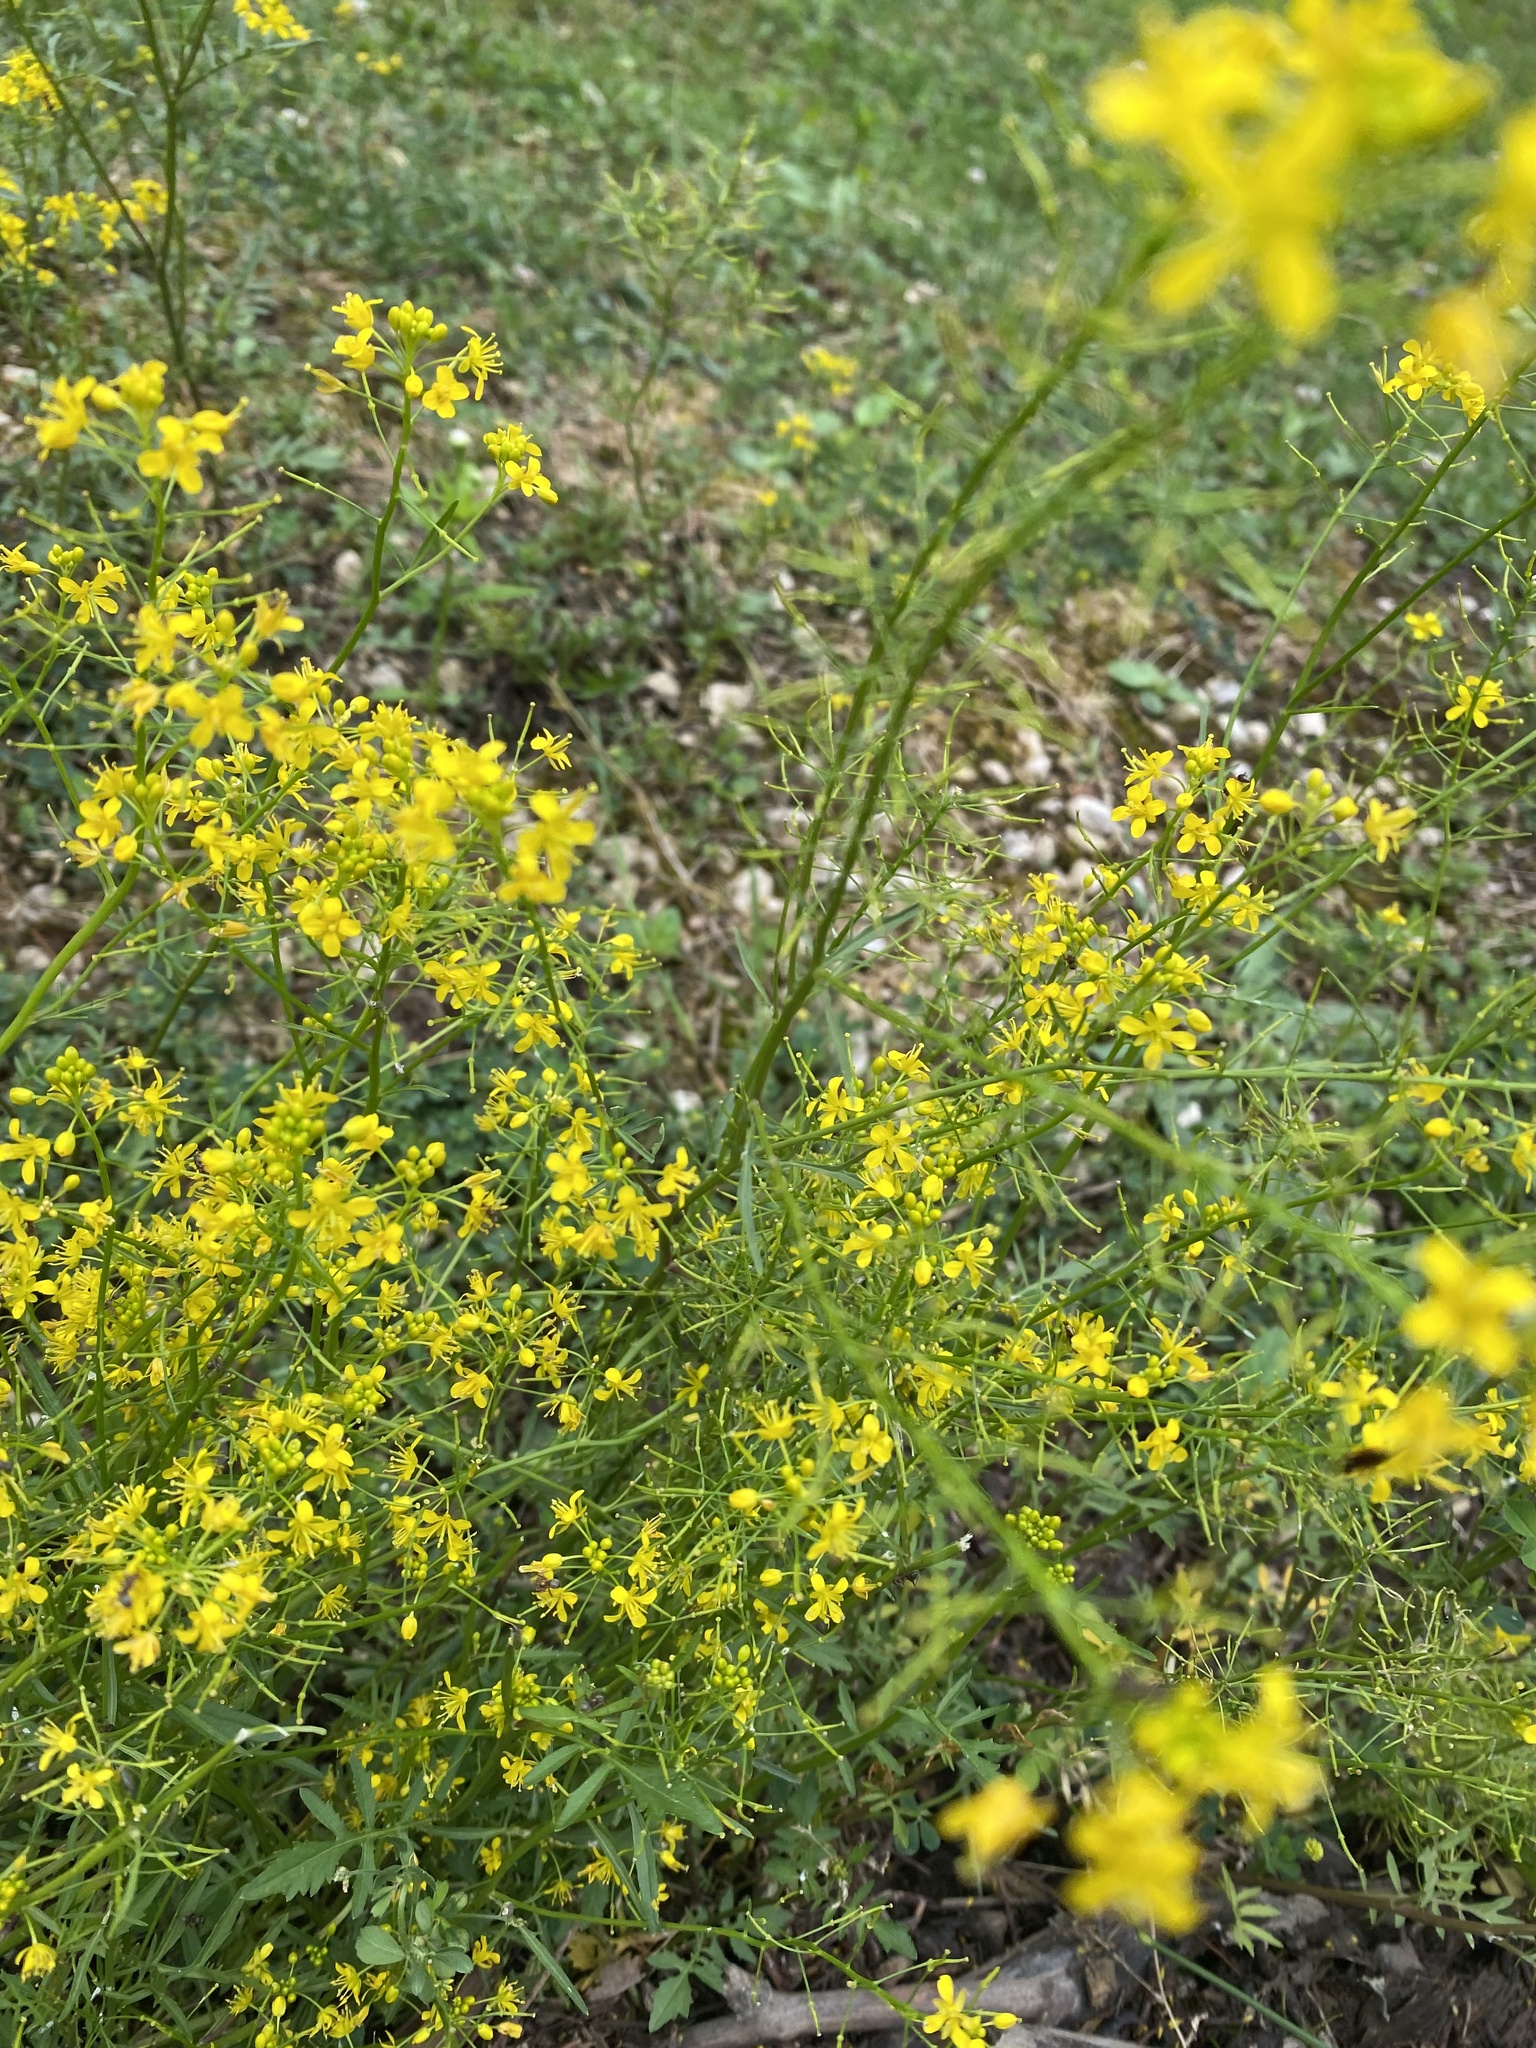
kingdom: Plantae
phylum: Tracheophyta
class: Magnoliopsida
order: Brassicales
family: Brassicaceae
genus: Rorippa
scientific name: Rorippa sylvestris
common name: Creeping yellowcress
